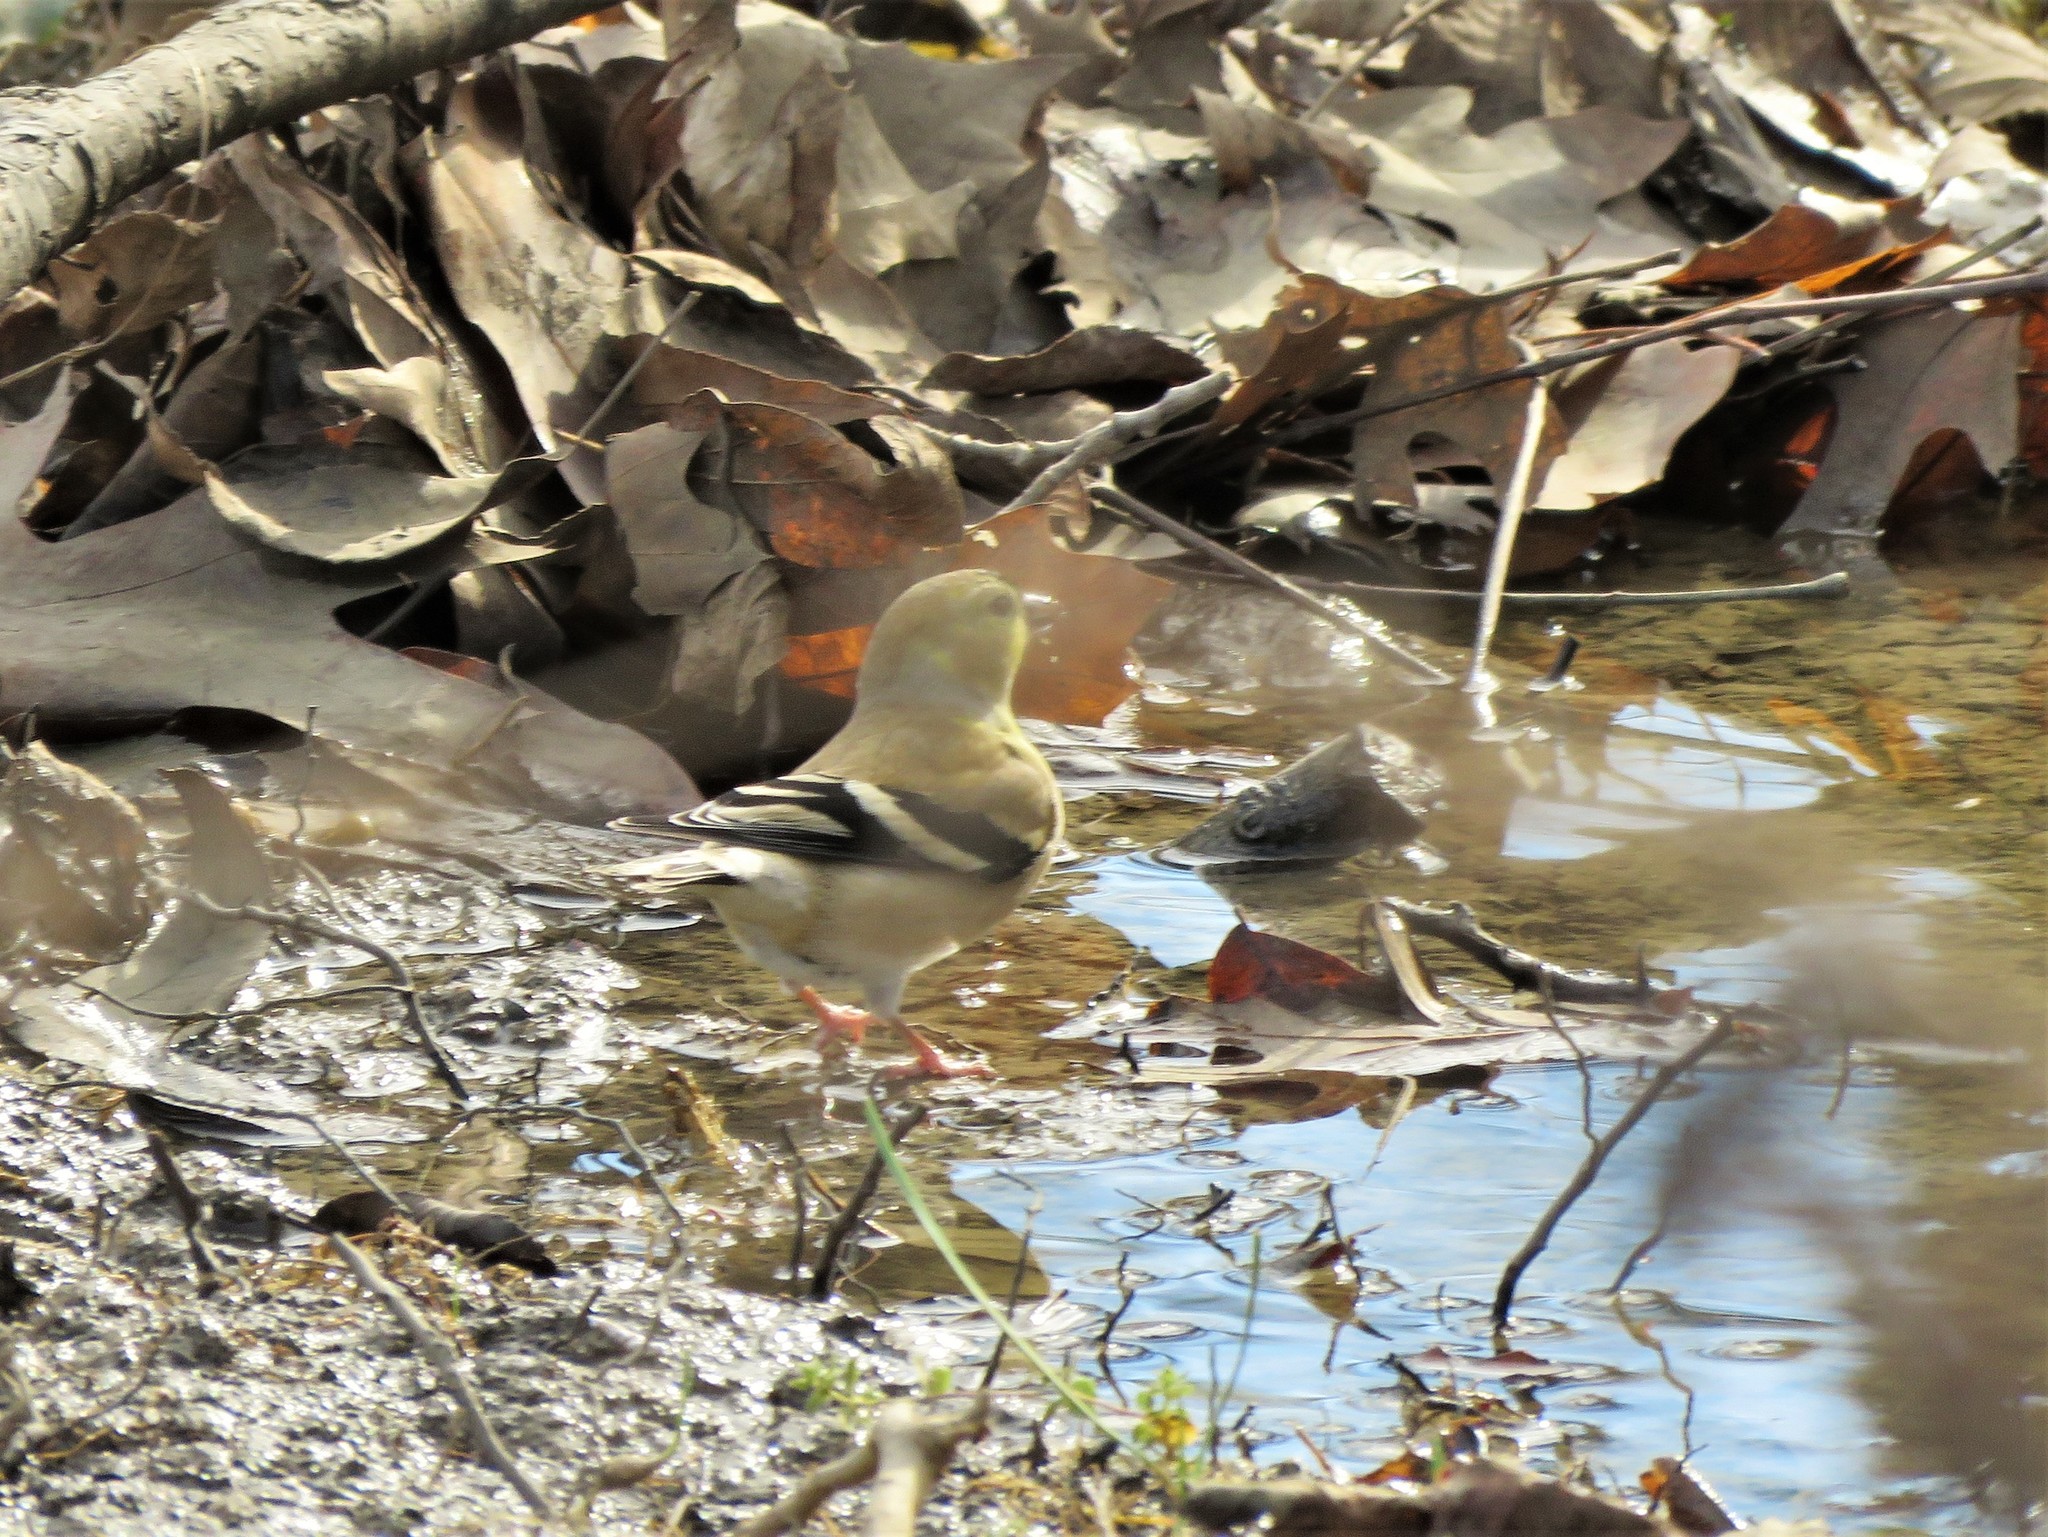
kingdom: Animalia
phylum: Chordata
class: Aves
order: Passeriformes
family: Fringillidae
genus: Spinus
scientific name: Spinus tristis
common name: American goldfinch
